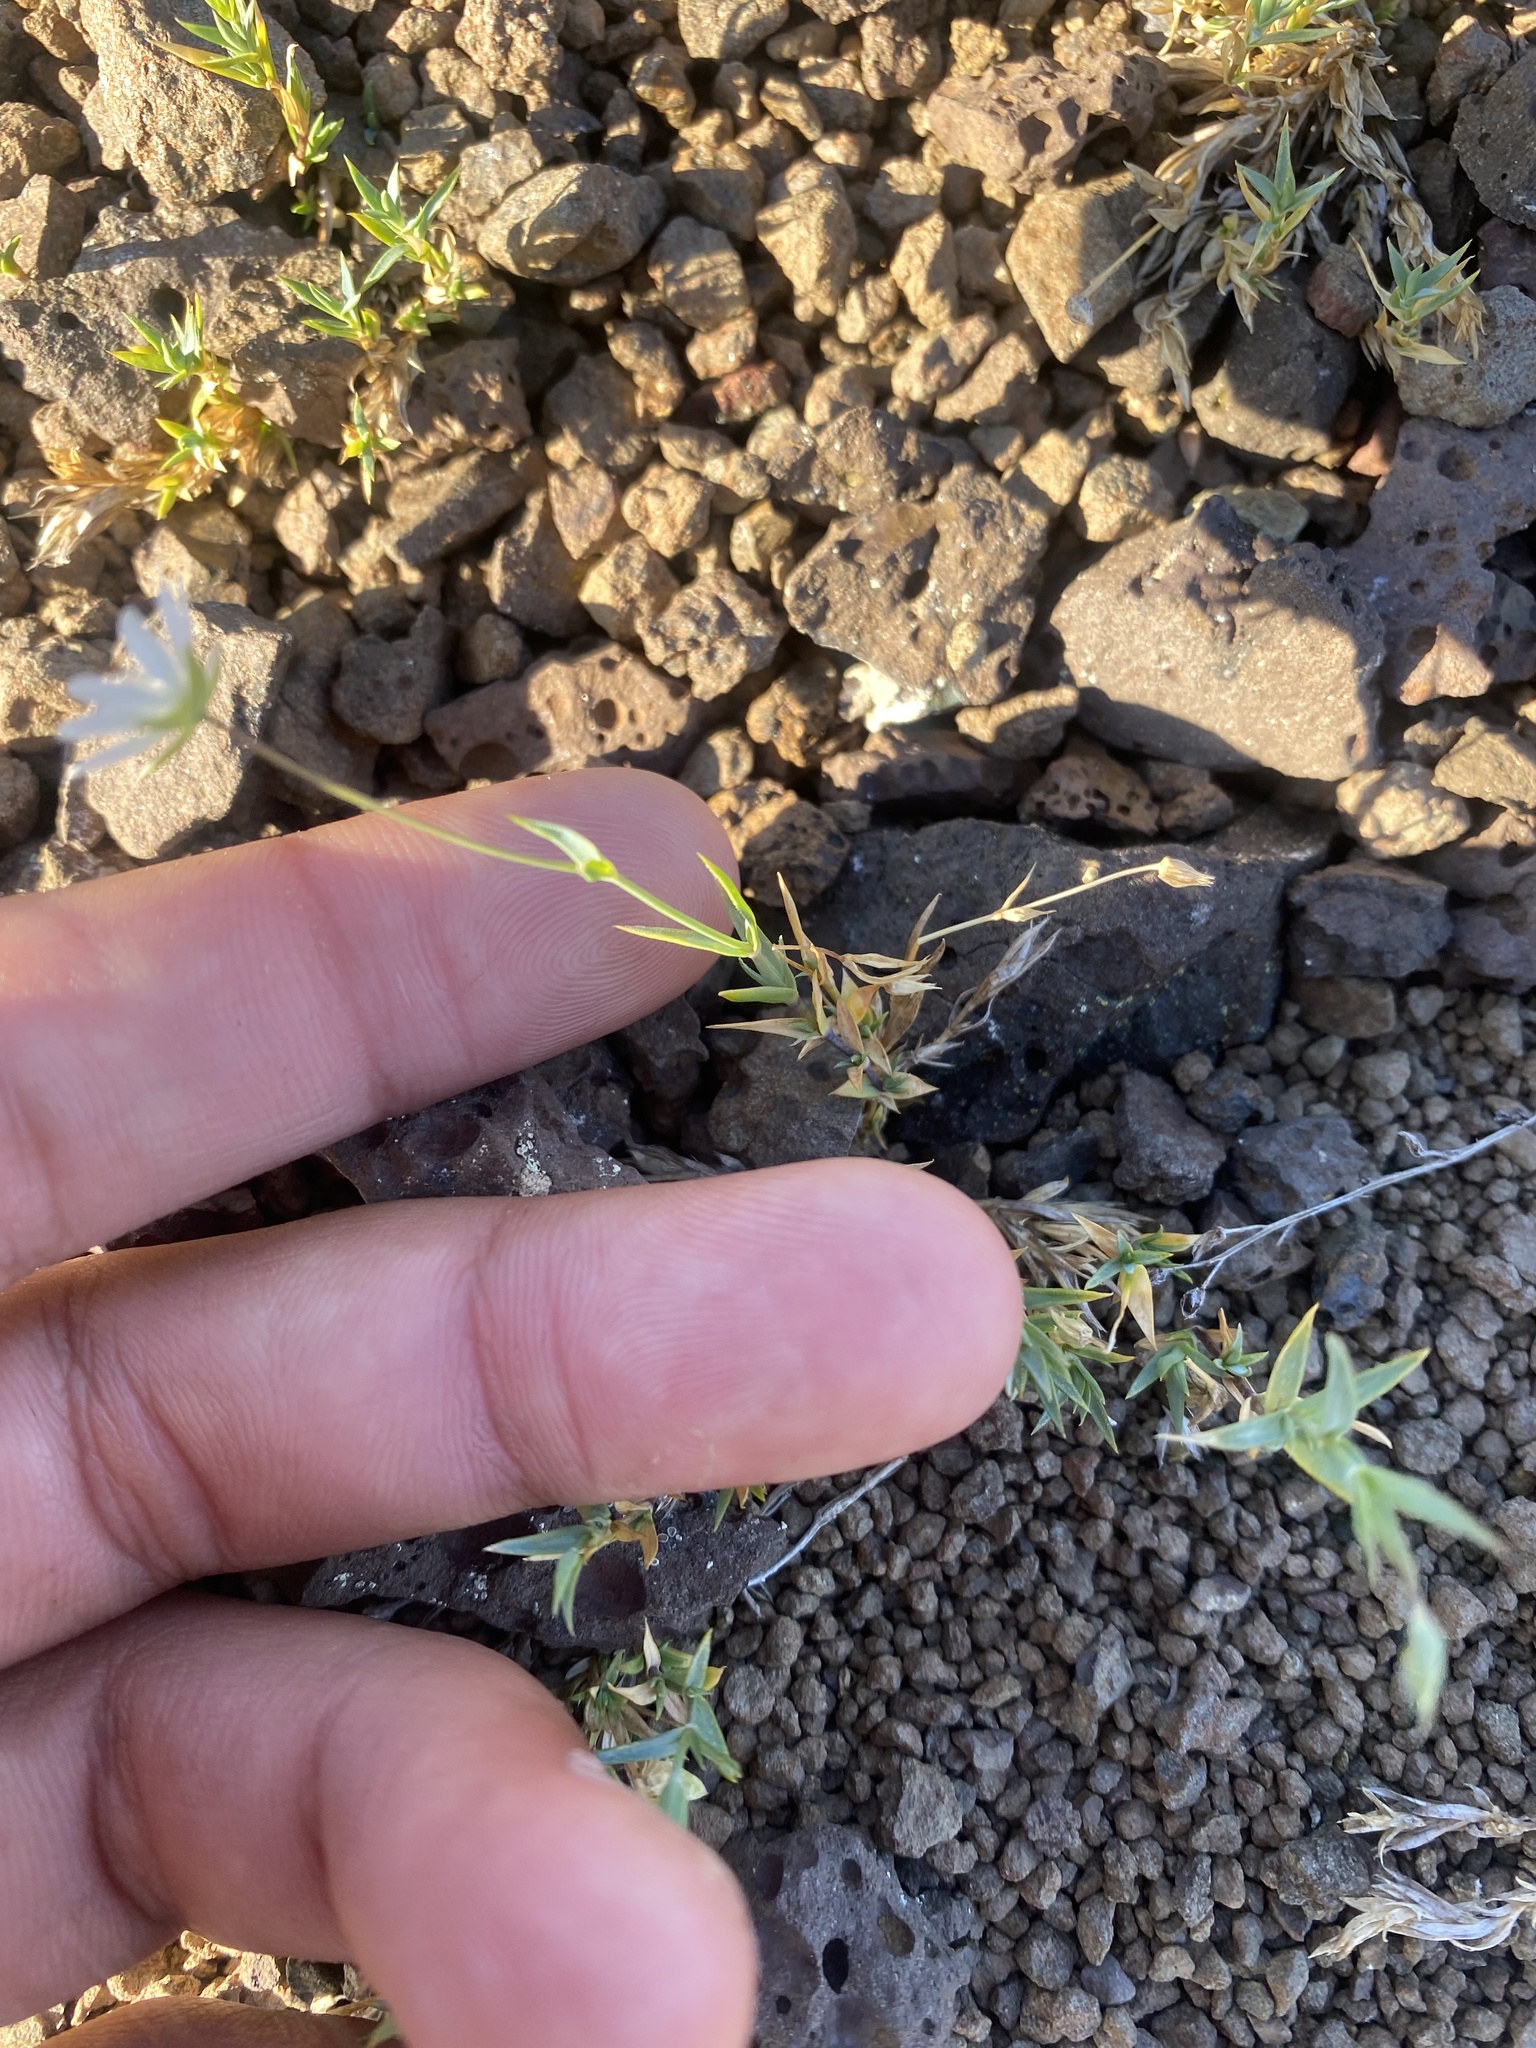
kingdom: Plantae
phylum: Tracheophyta
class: Magnoliopsida
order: Caryophyllales
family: Caryophyllaceae
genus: Stellaria
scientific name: Stellaria fischeriana
